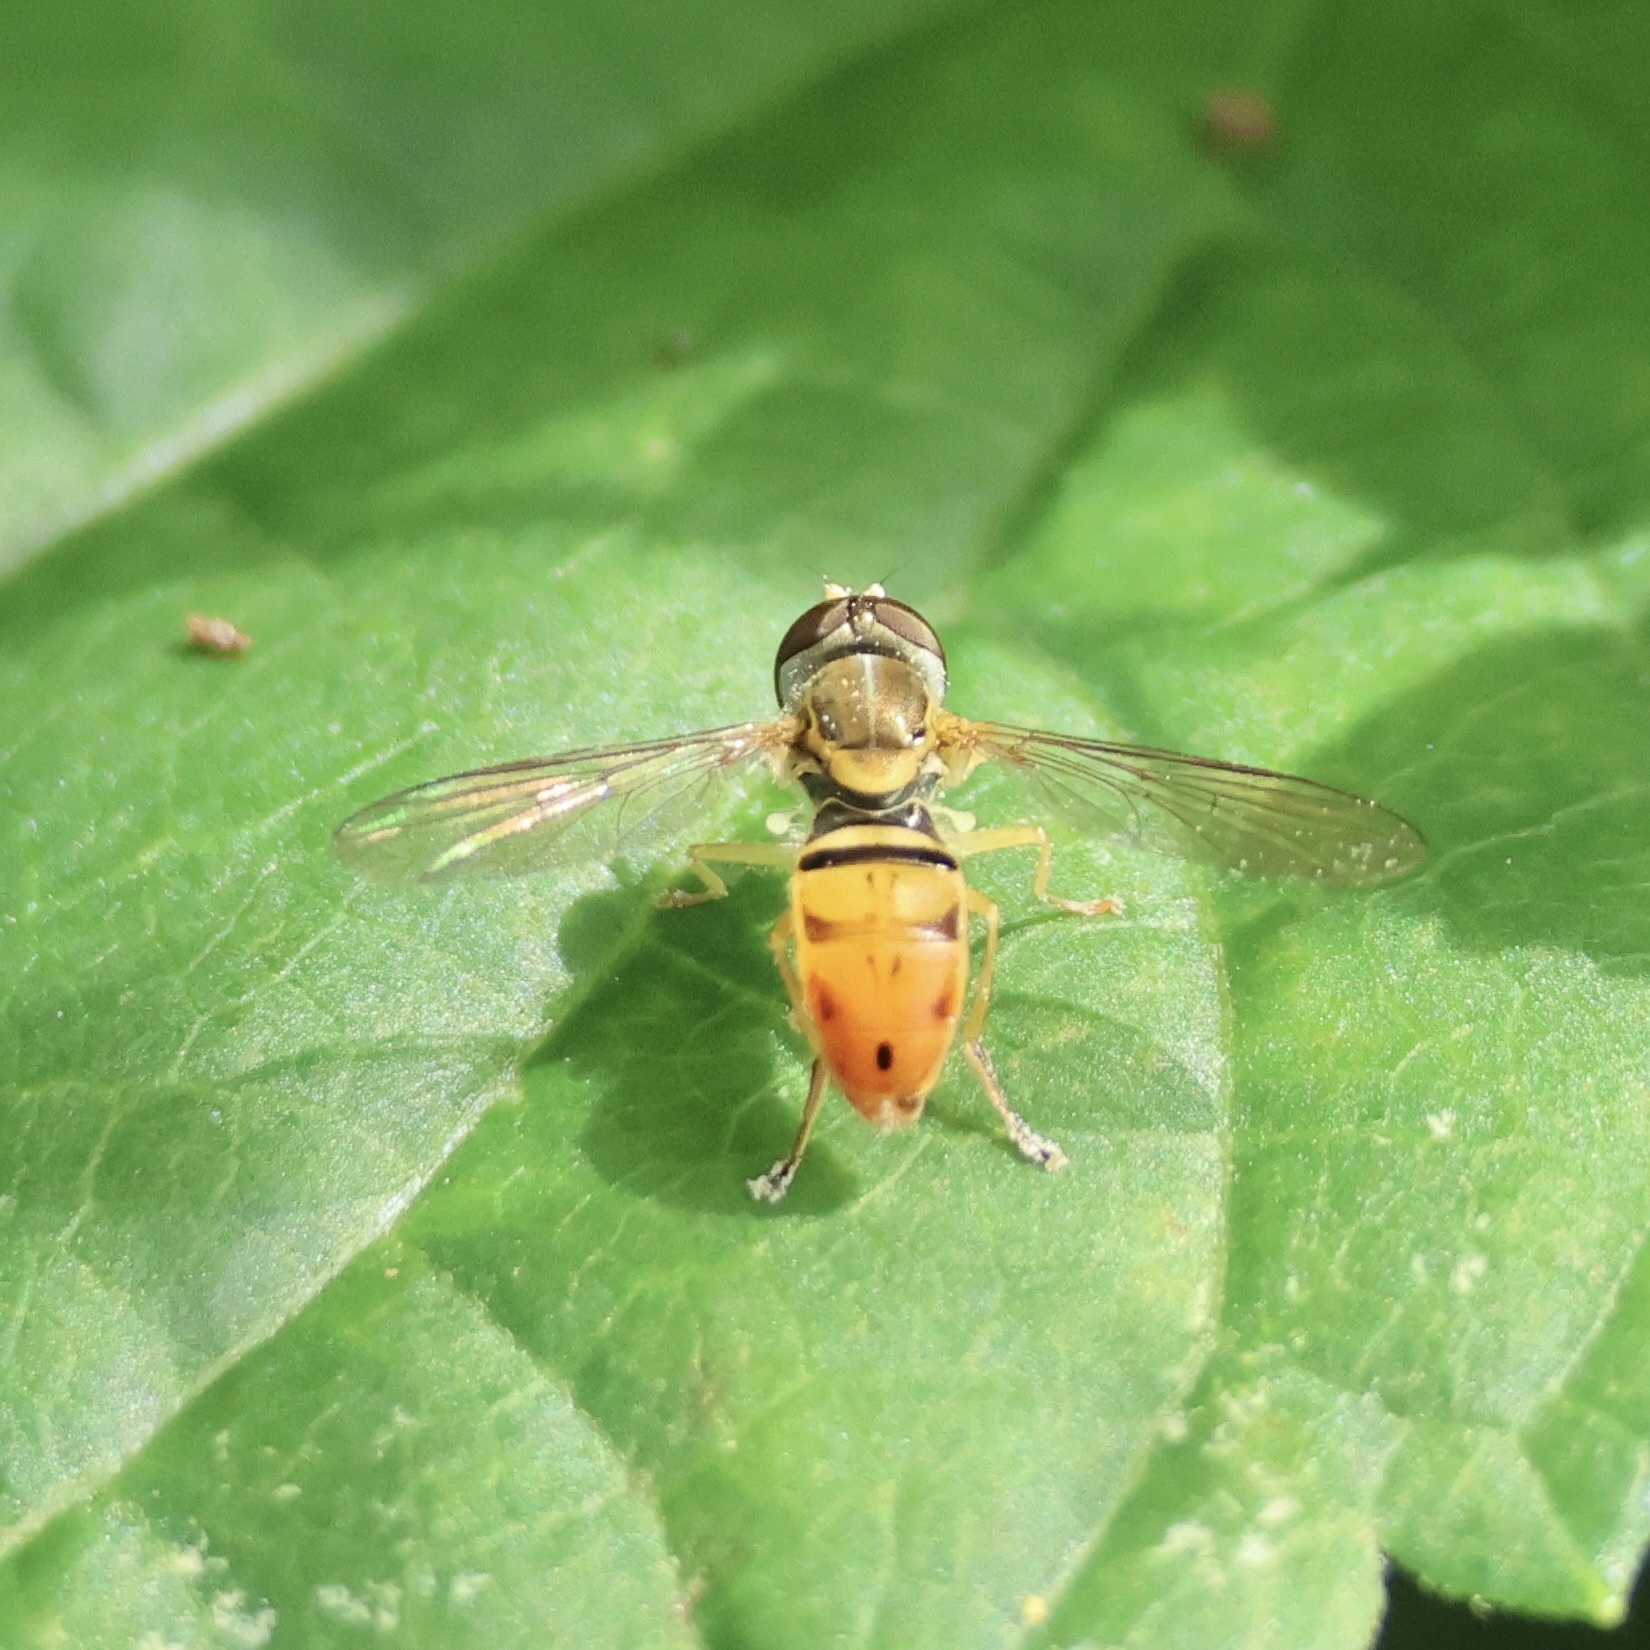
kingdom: Animalia
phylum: Arthropoda
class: Insecta
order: Diptera
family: Syrphidae
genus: Toxomerus
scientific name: Toxomerus marginatus
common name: Syrphid fly
